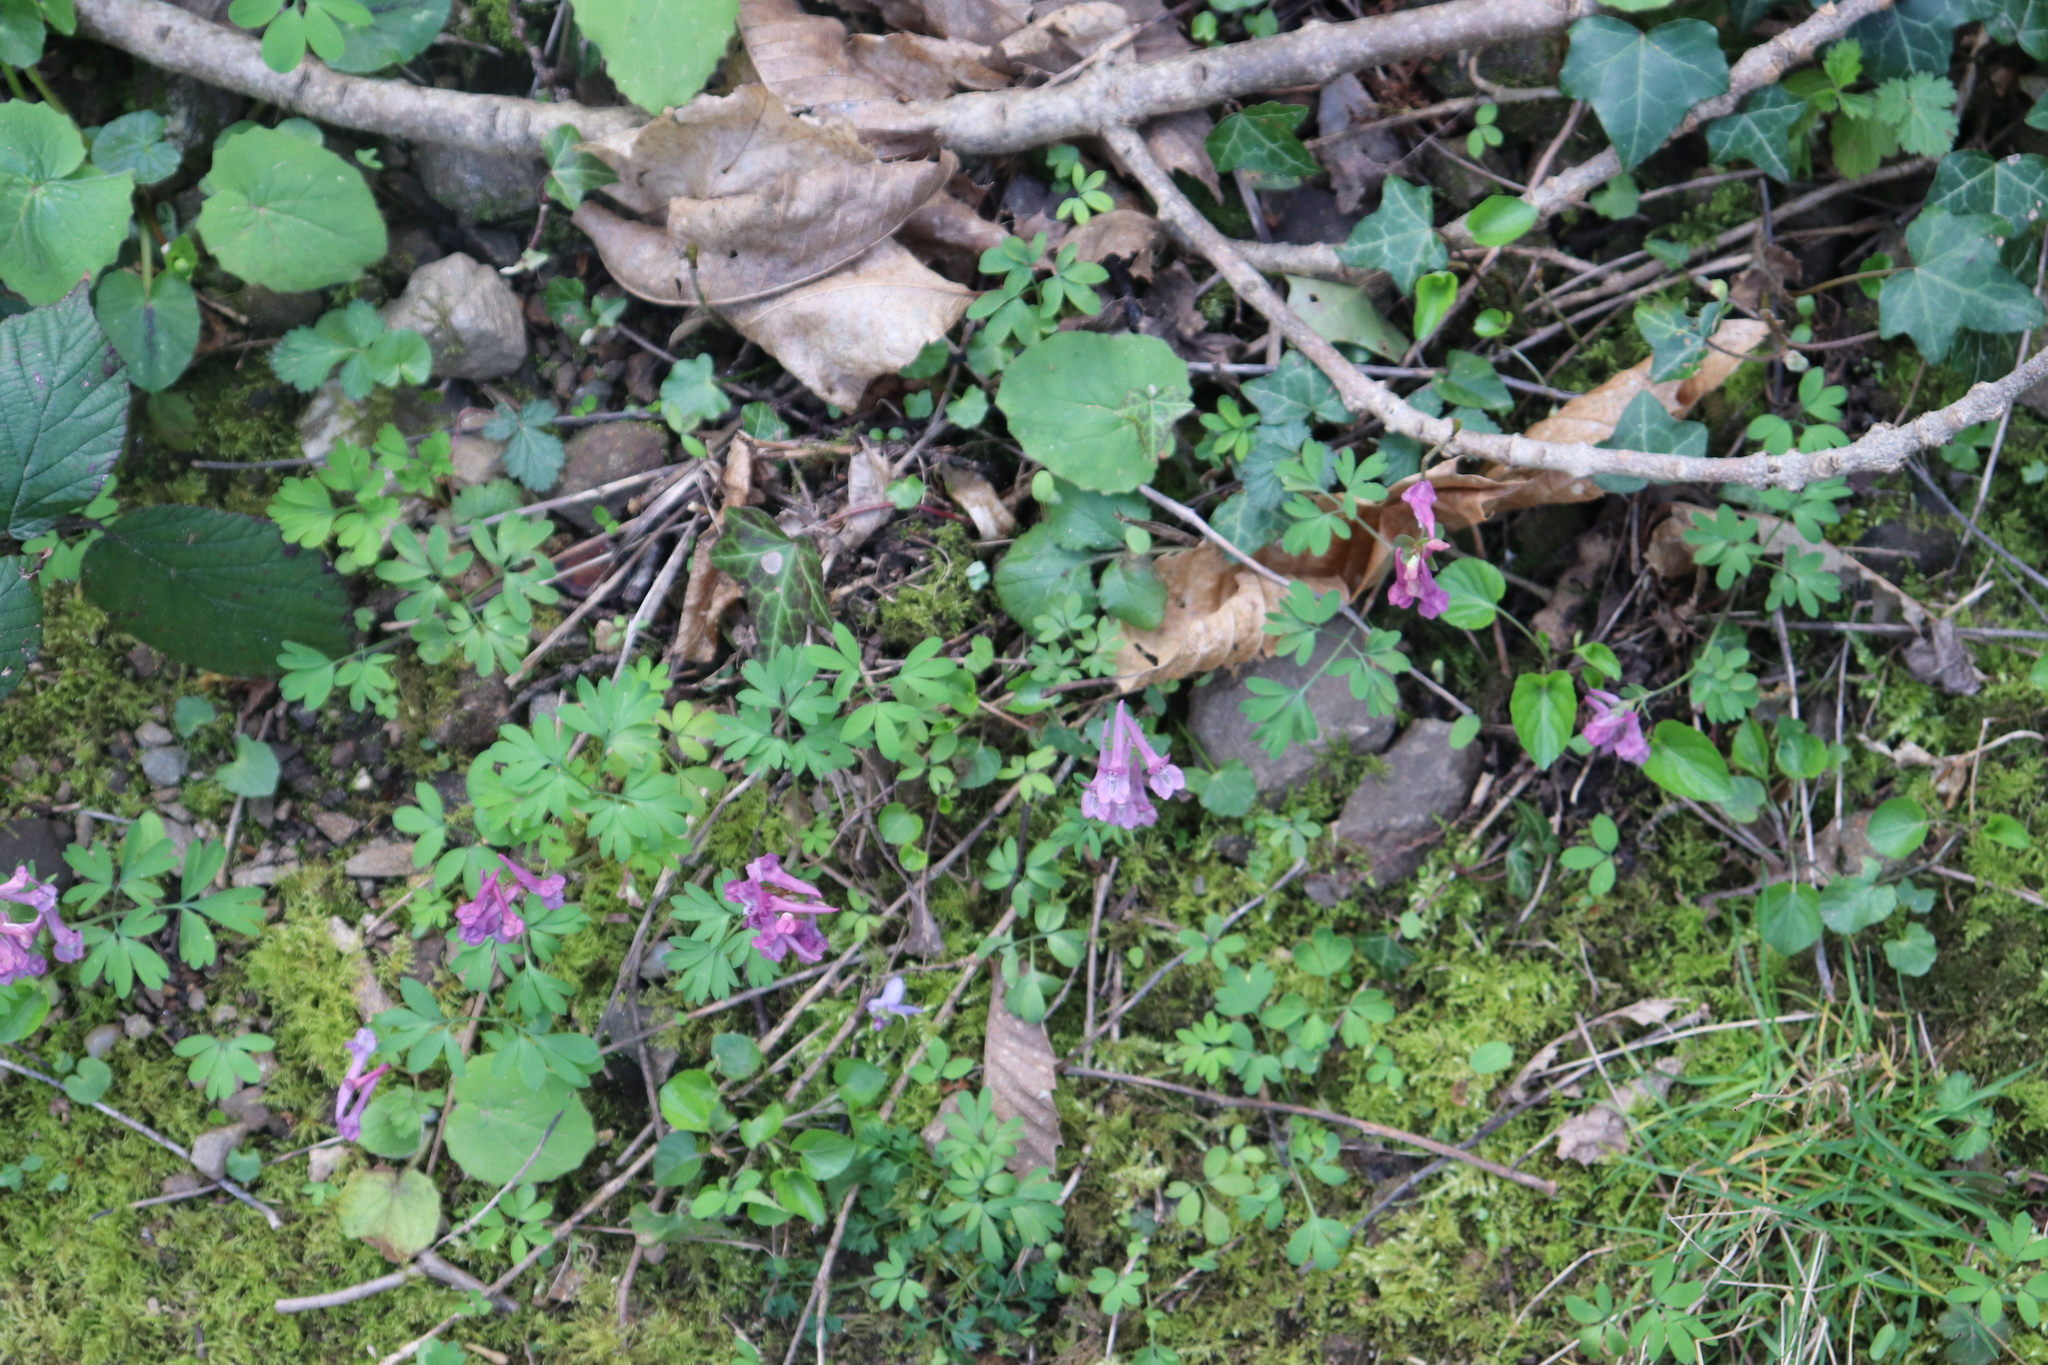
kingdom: Plantae
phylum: Tracheophyta
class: Magnoliopsida
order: Ranunculales
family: Papaveraceae
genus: Corydalis
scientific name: Corydalis solida
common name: Bird-in-a-bush
